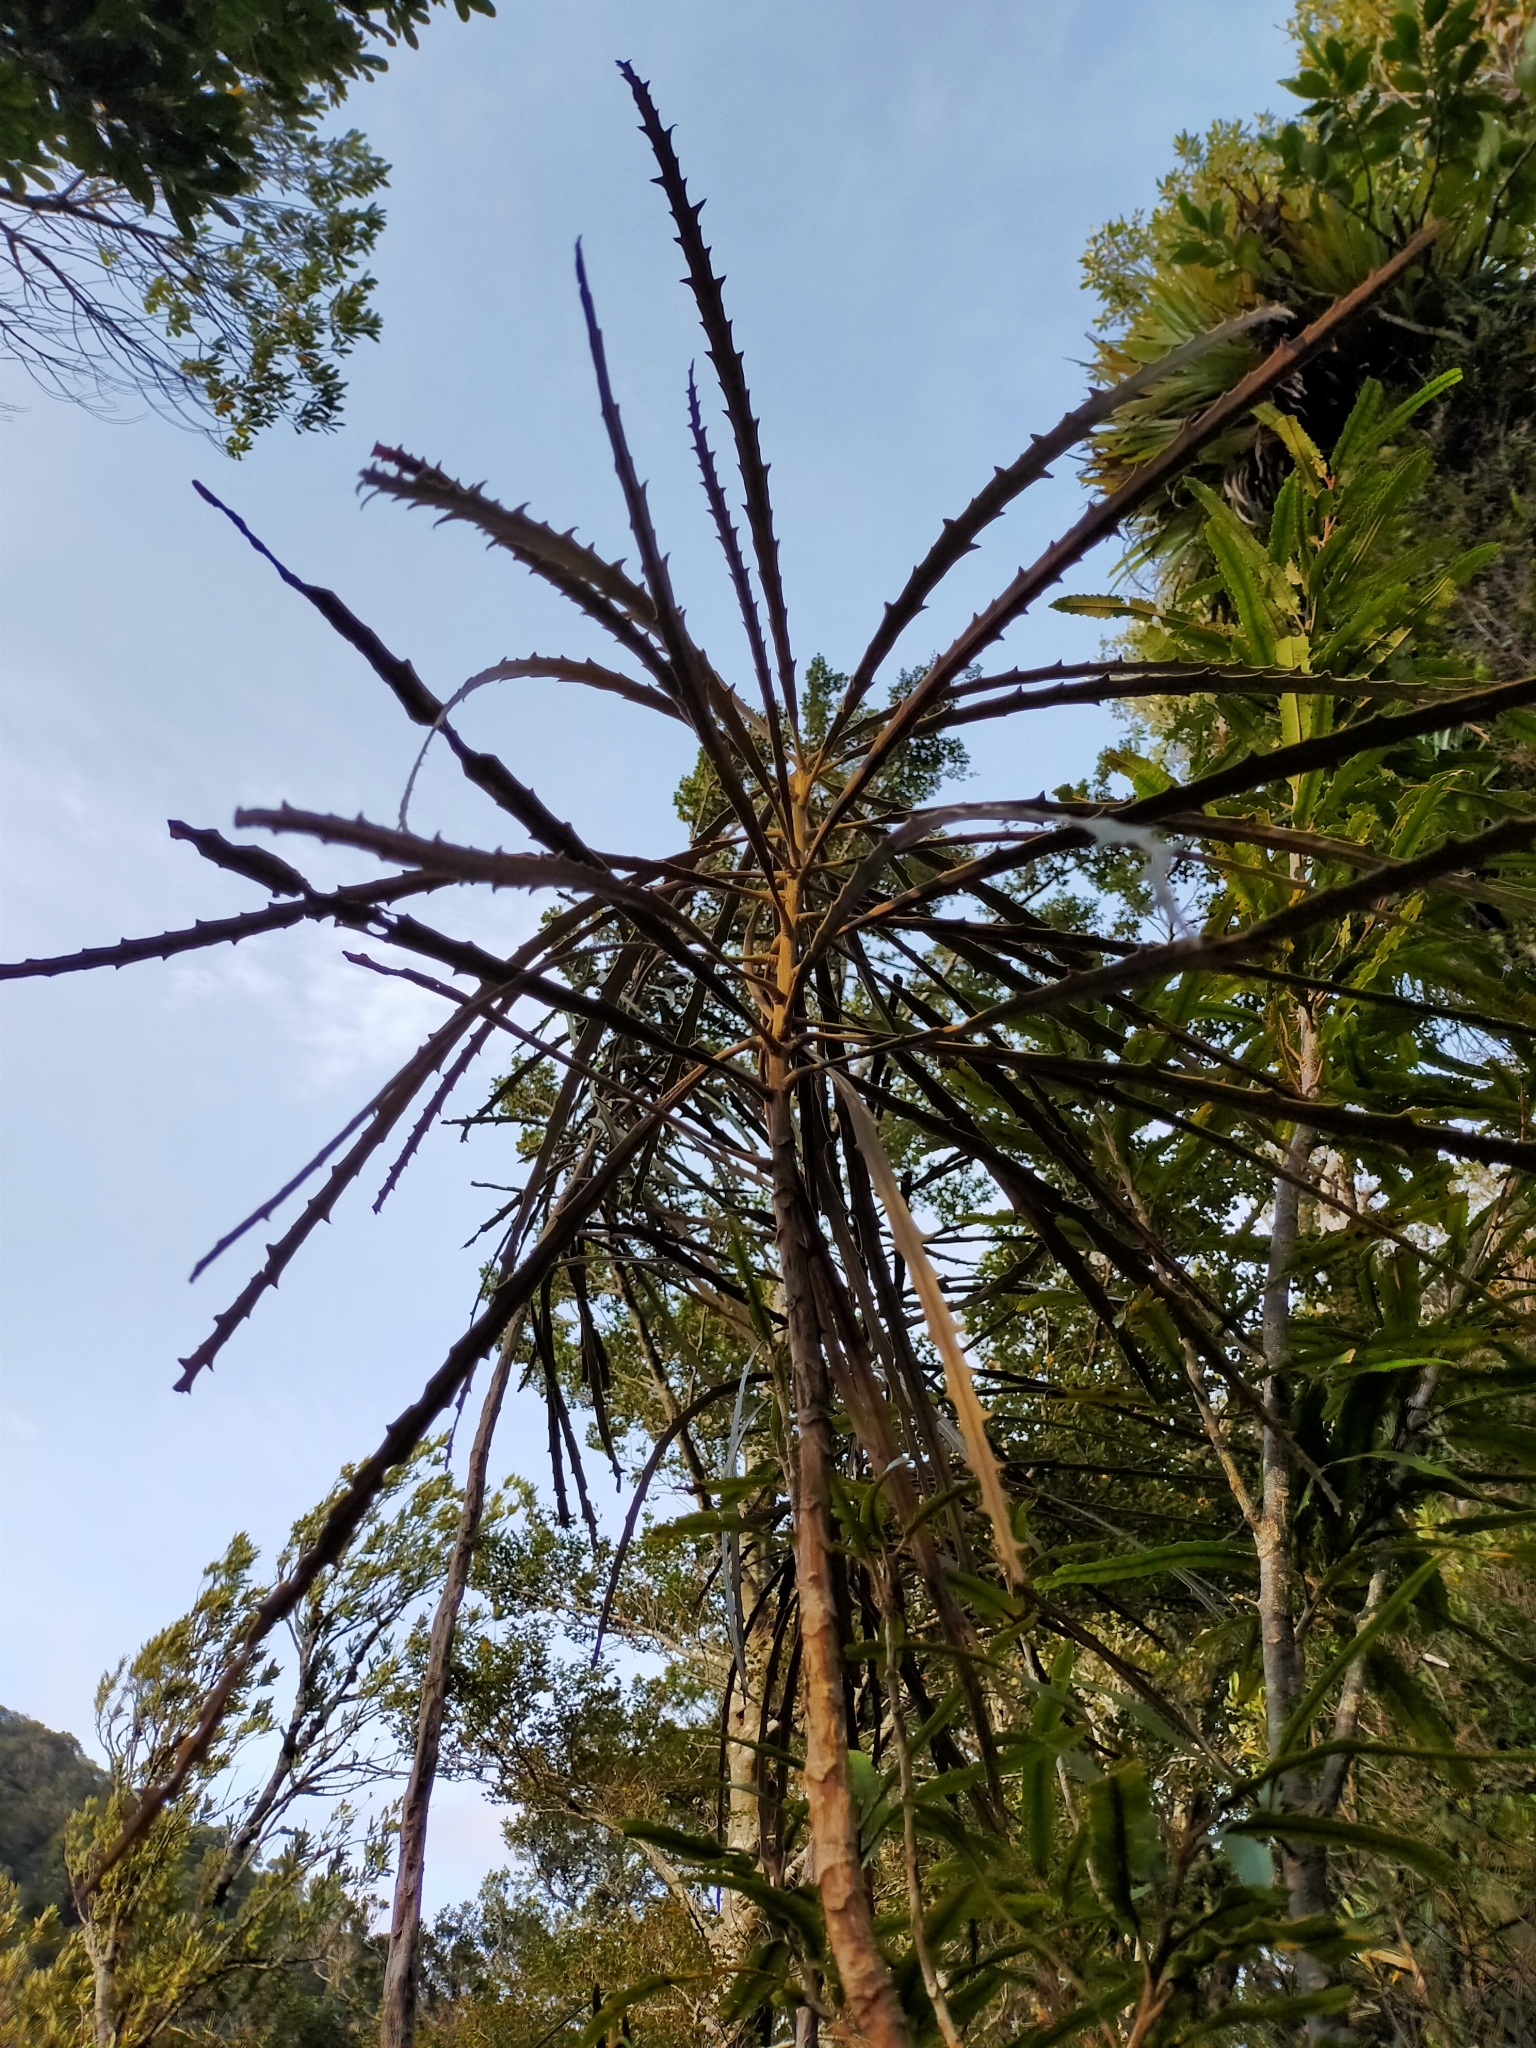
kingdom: Plantae
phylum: Tracheophyta
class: Magnoliopsida
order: Apiales
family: Araliaceae
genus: Pseudopanax
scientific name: Pseudopanax crassifolius
